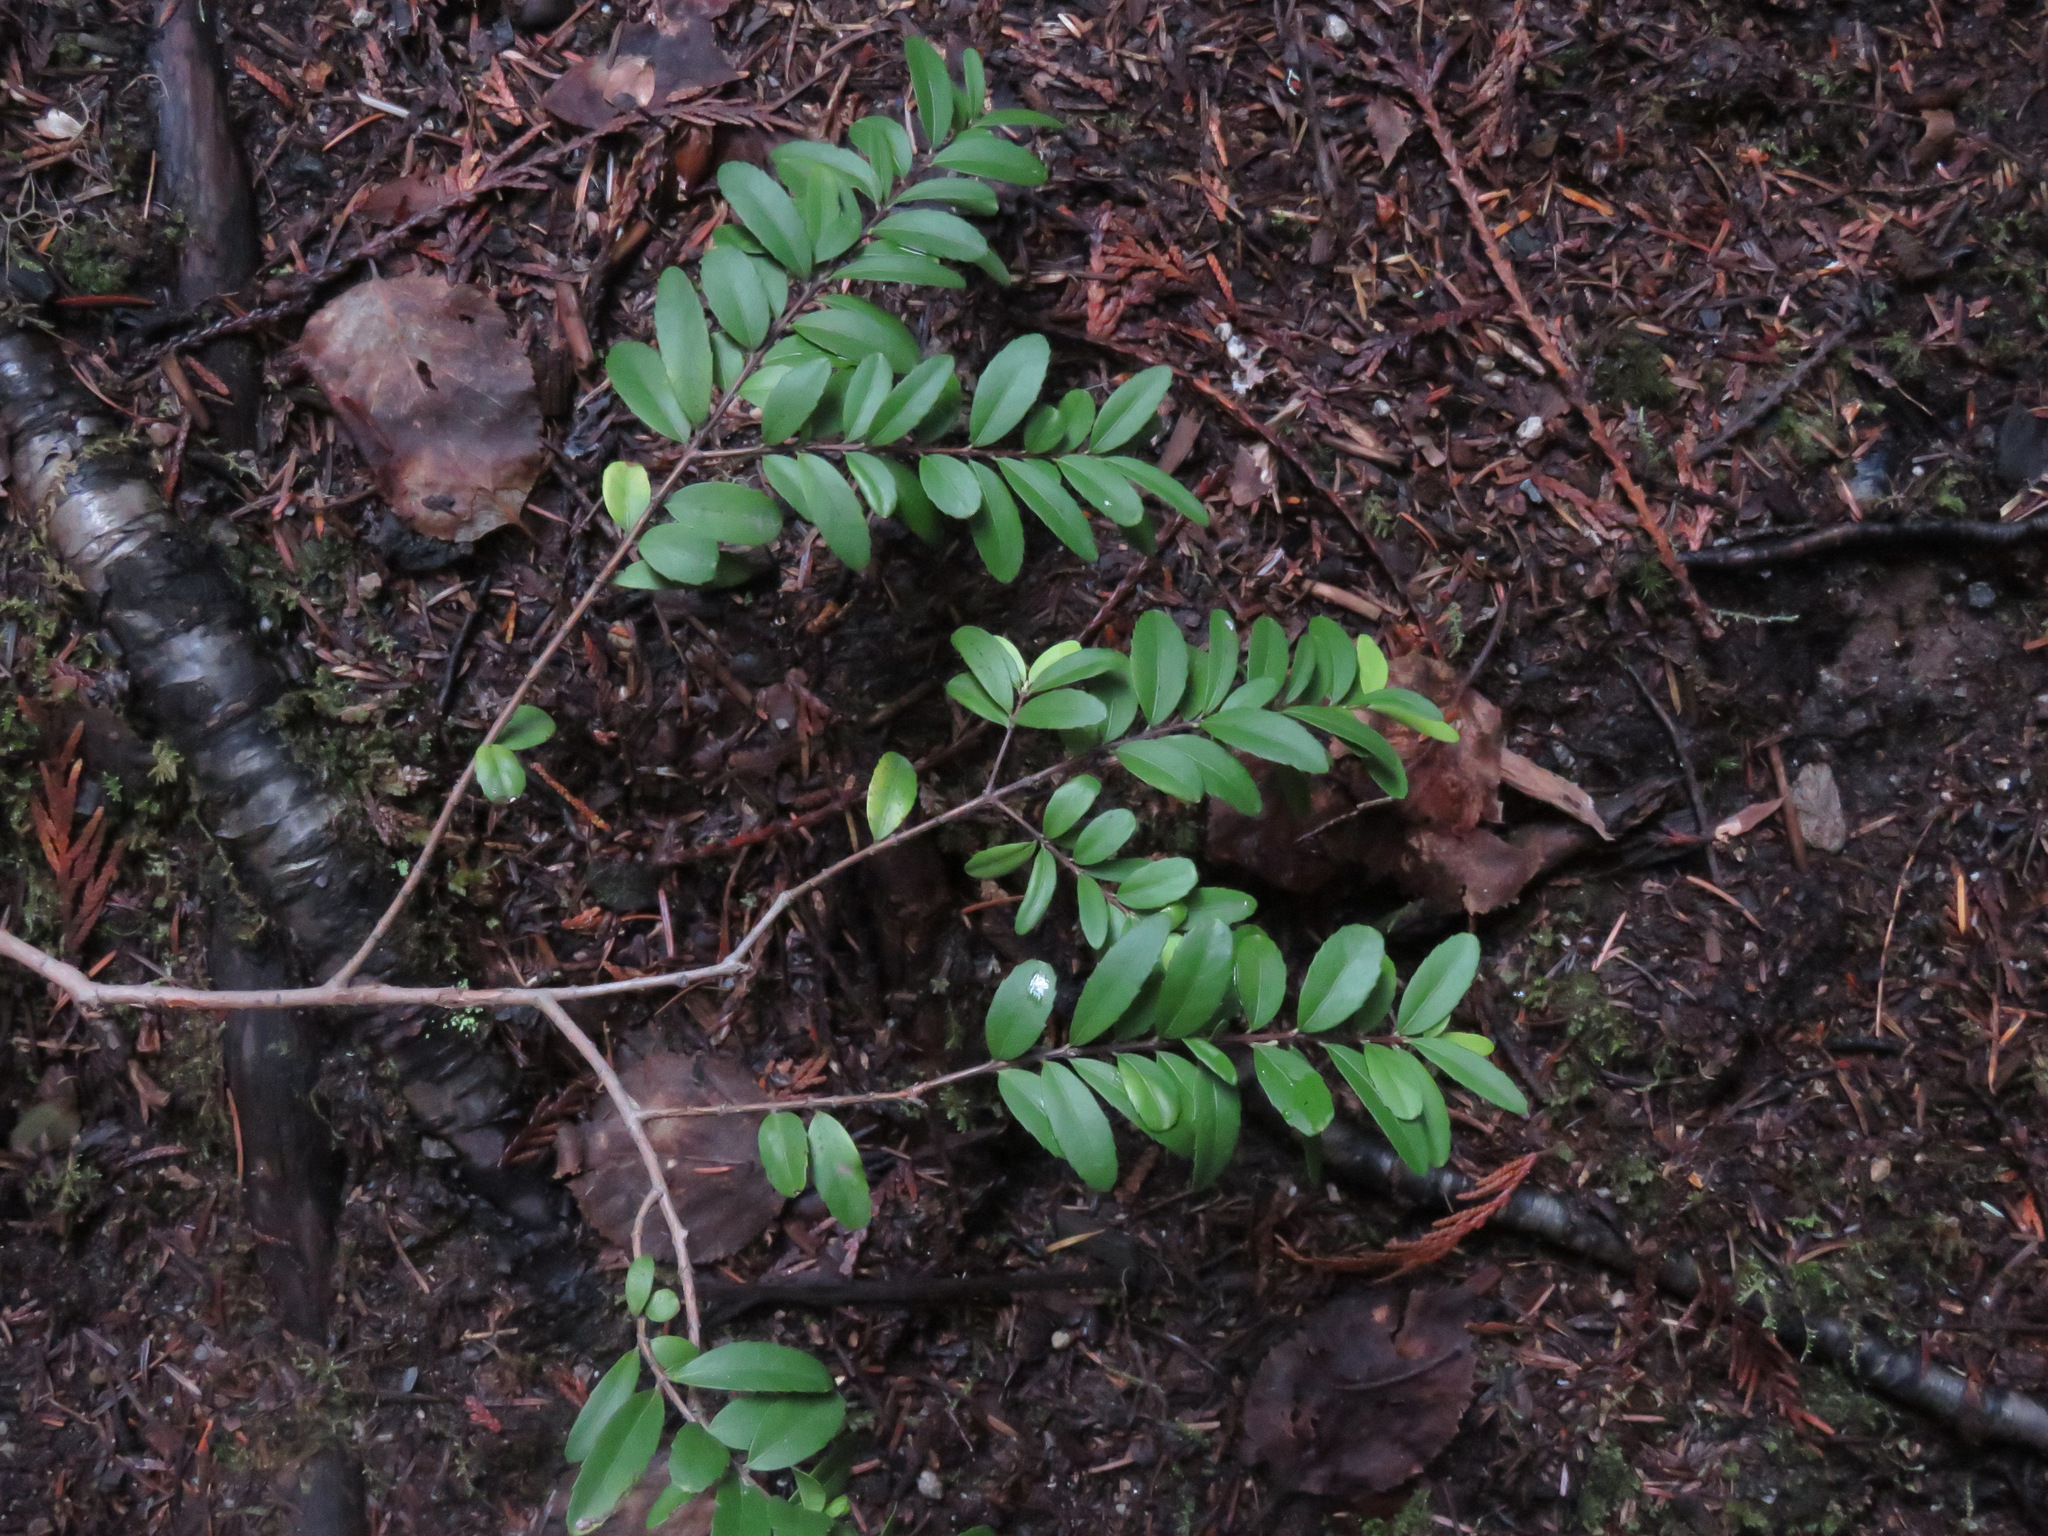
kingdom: Plantae
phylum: Tracheophyta
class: Magnoliopsida
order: Celastrales
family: Celastraceae
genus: Paxistima
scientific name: Paxistima myrsinites
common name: Mountain-lover
